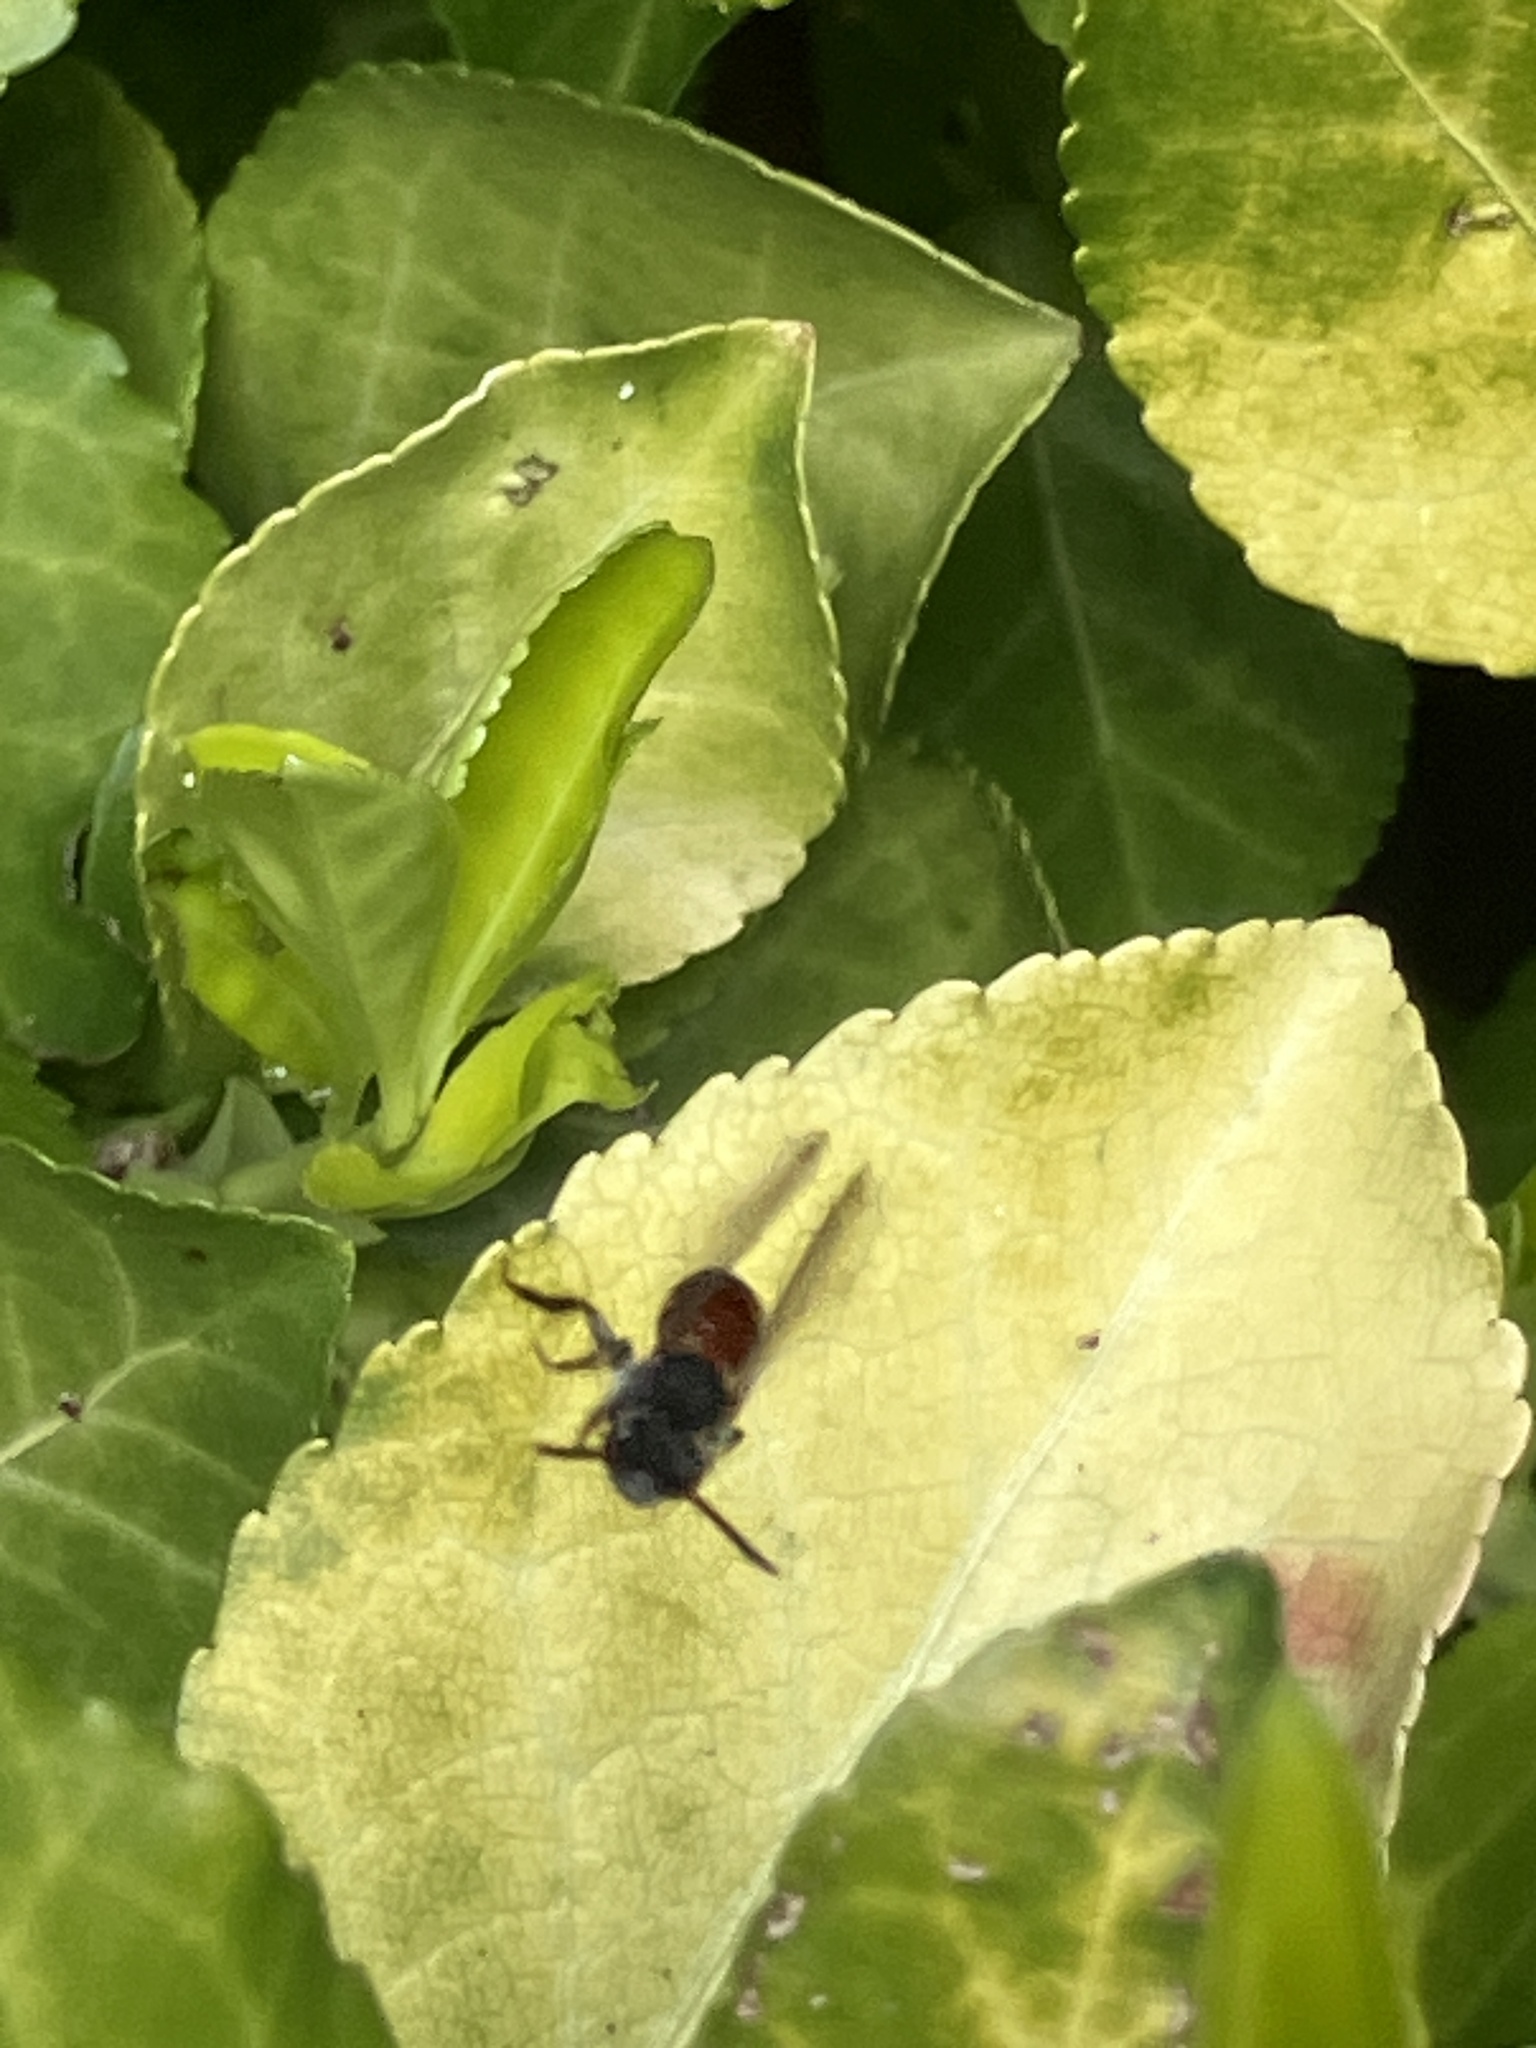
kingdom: Animalia
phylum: Arthropoda
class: Insecta
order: Hymenoptera
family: Andrenidae
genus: Andrena
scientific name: Andrena labiata
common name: Red-girdled mining bee
